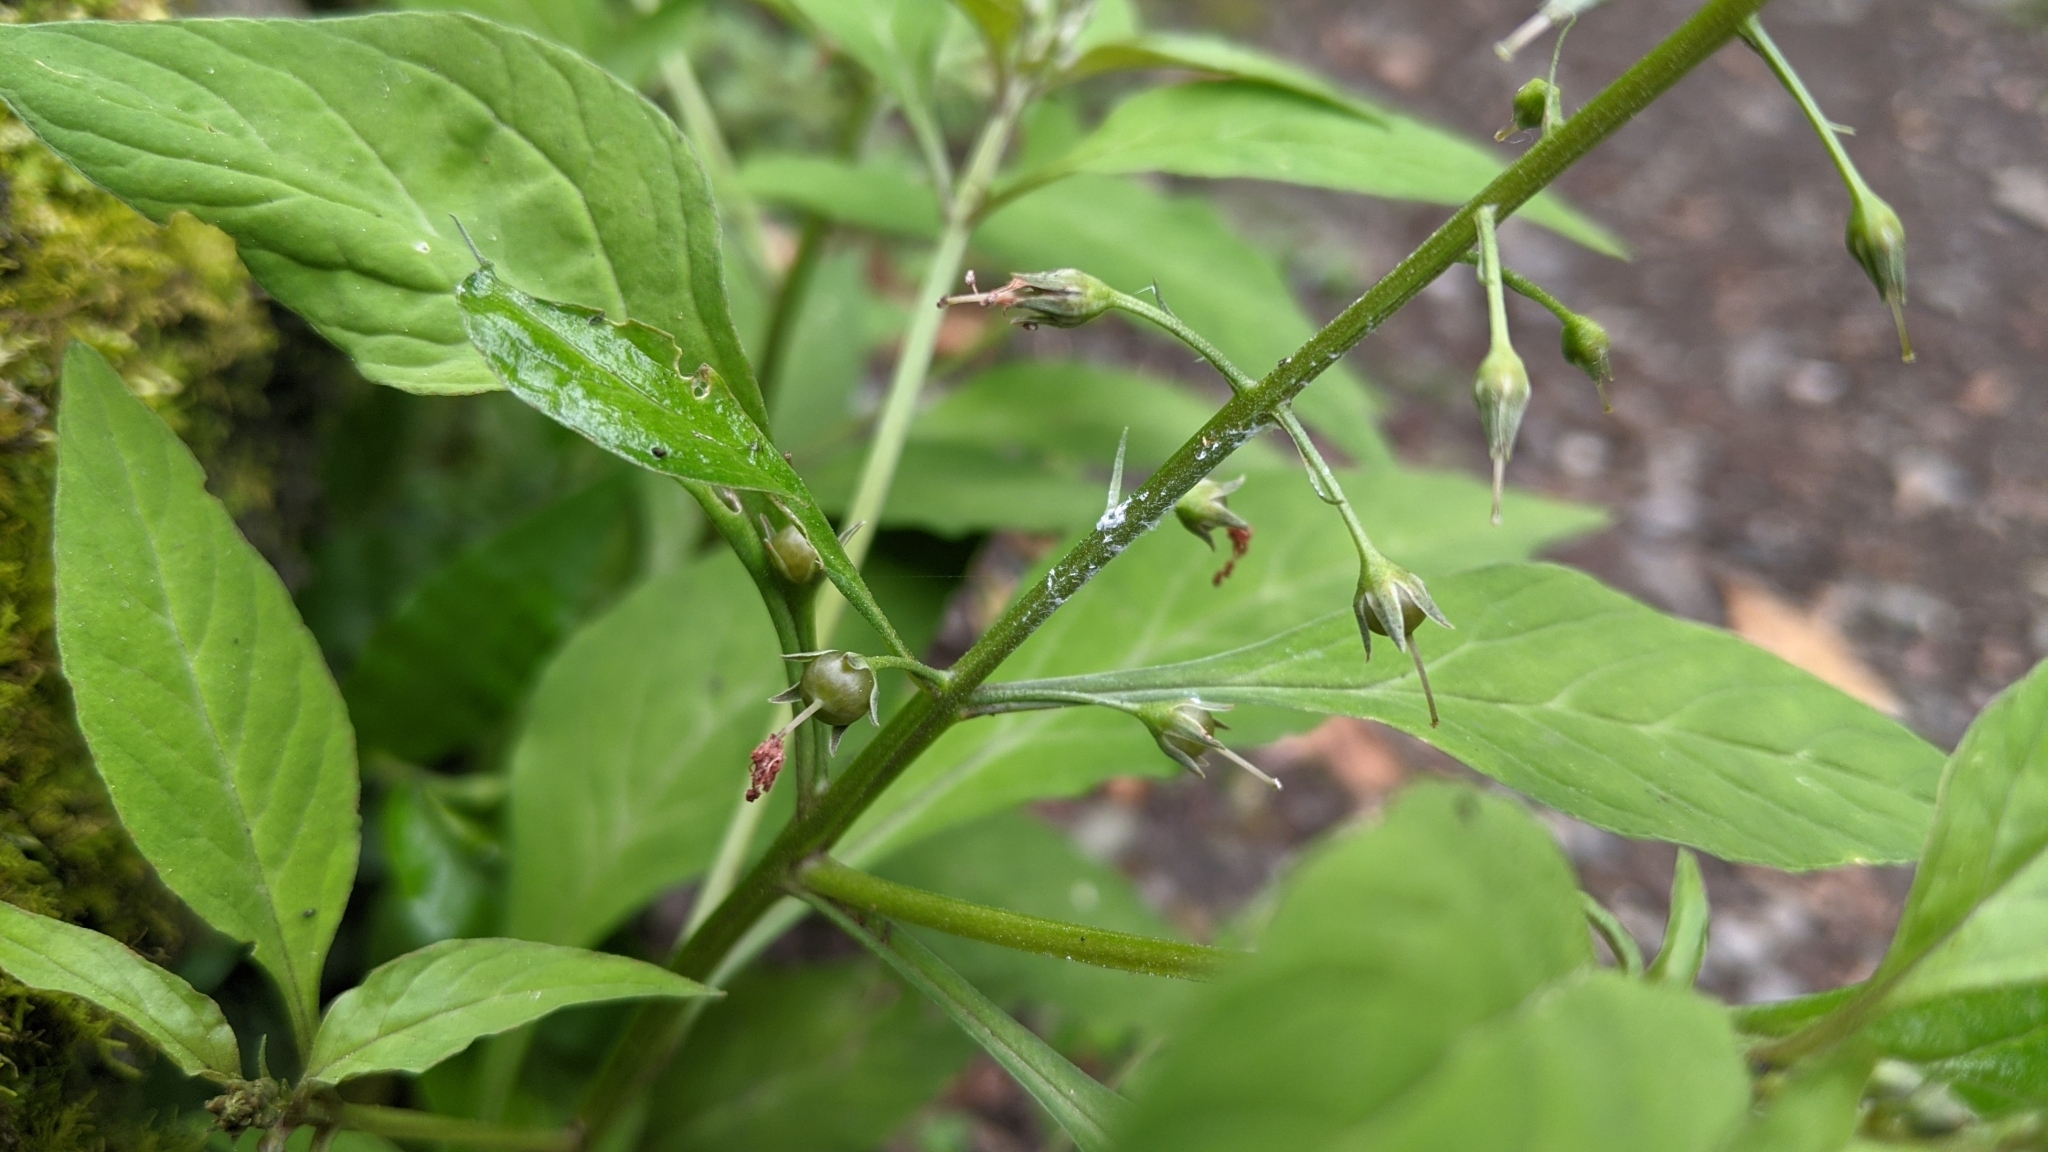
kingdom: Plantae
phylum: Tracheophyta
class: Magnoliopsida
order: Ericales
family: Primulaceae
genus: Lysimachia
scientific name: Lysimachia decurrens
